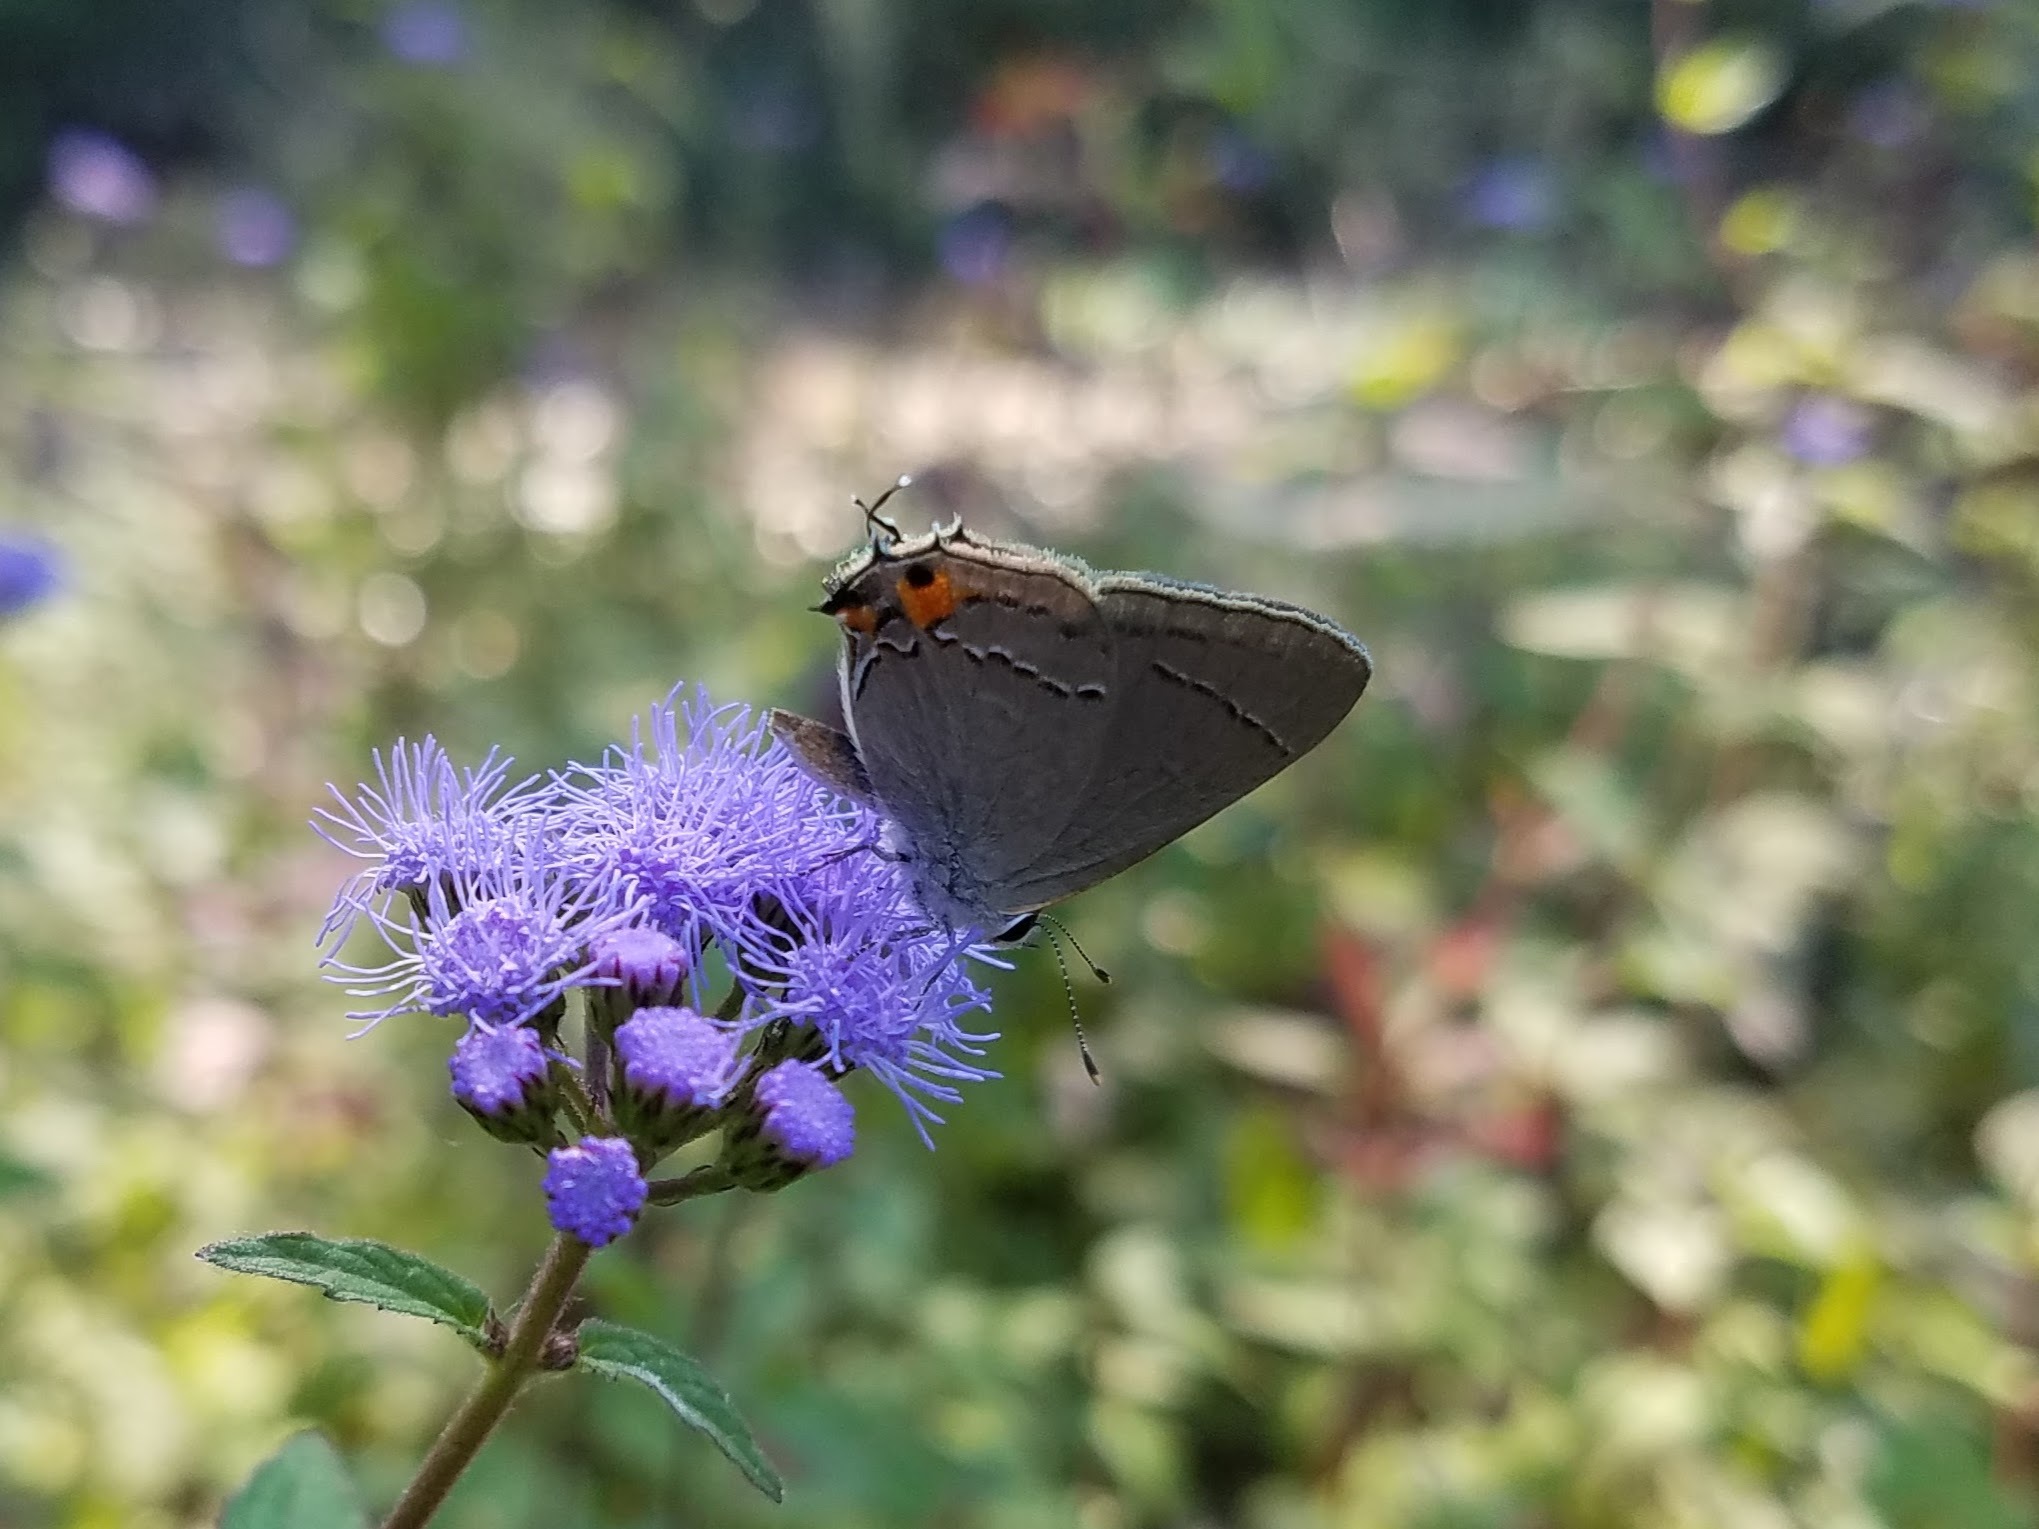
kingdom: Animalia
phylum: Arthropoda
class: Insecta
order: Lepidoptera
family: Lycaenidae
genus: Strymon
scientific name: Strymon melinus
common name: Gray hairstreak
